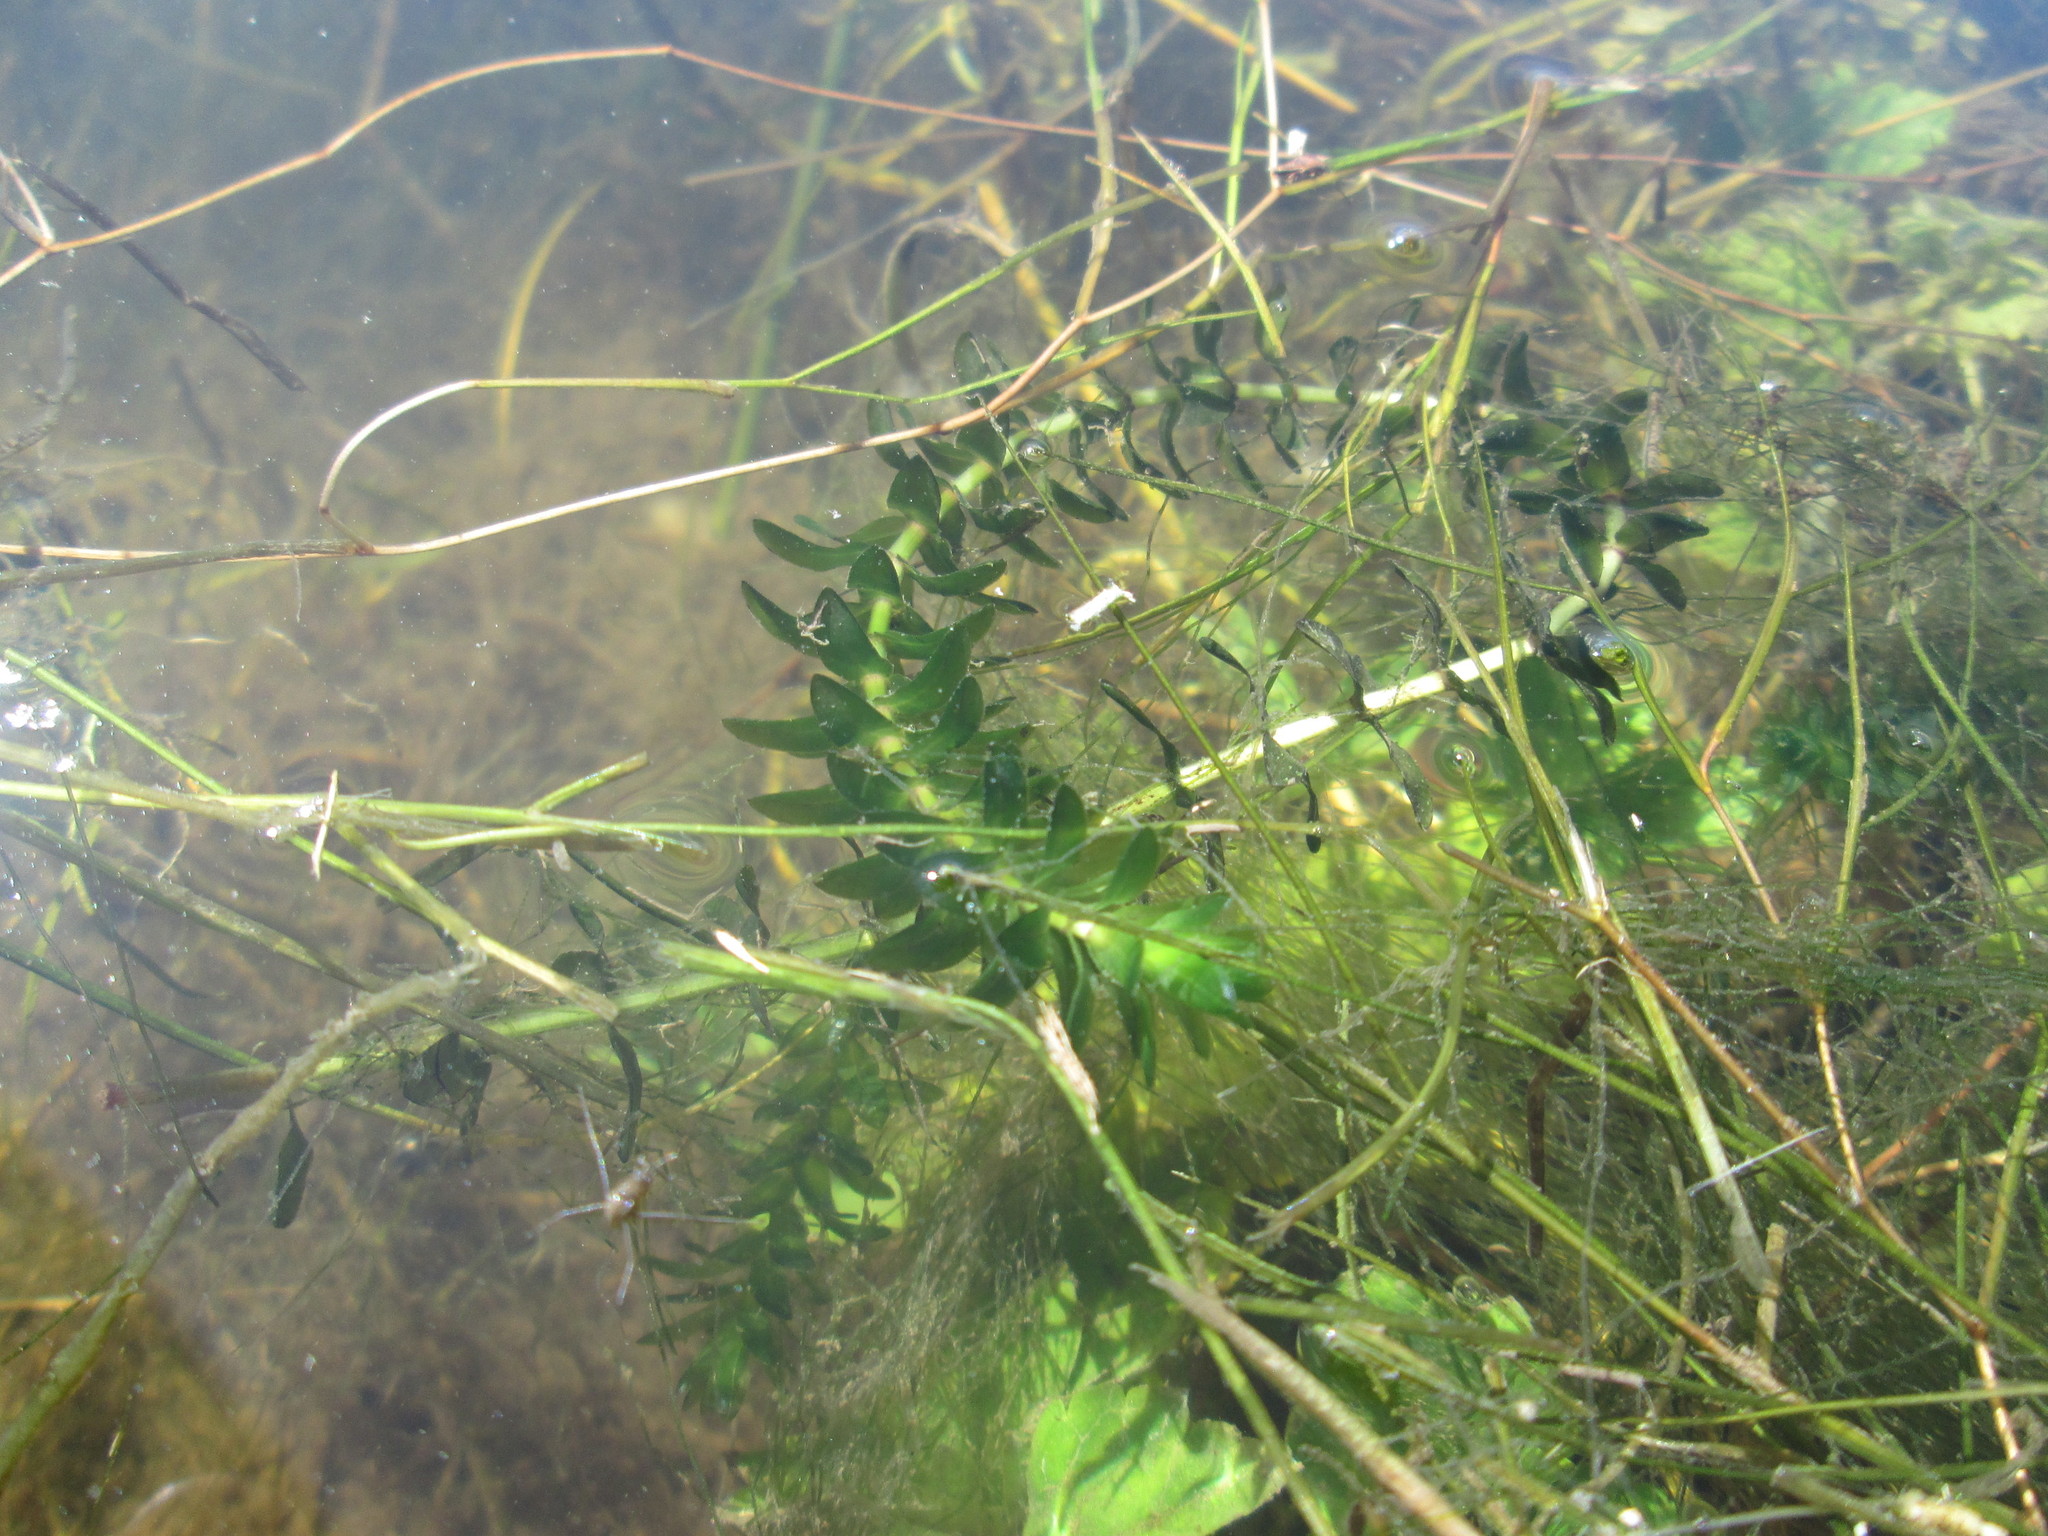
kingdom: Plantae
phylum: Tracheophyta
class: Liliopsida
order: Alismatales
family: Hydrocharitaceae
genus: Elodea
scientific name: Elodea canadensis
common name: Canadian waterweed
